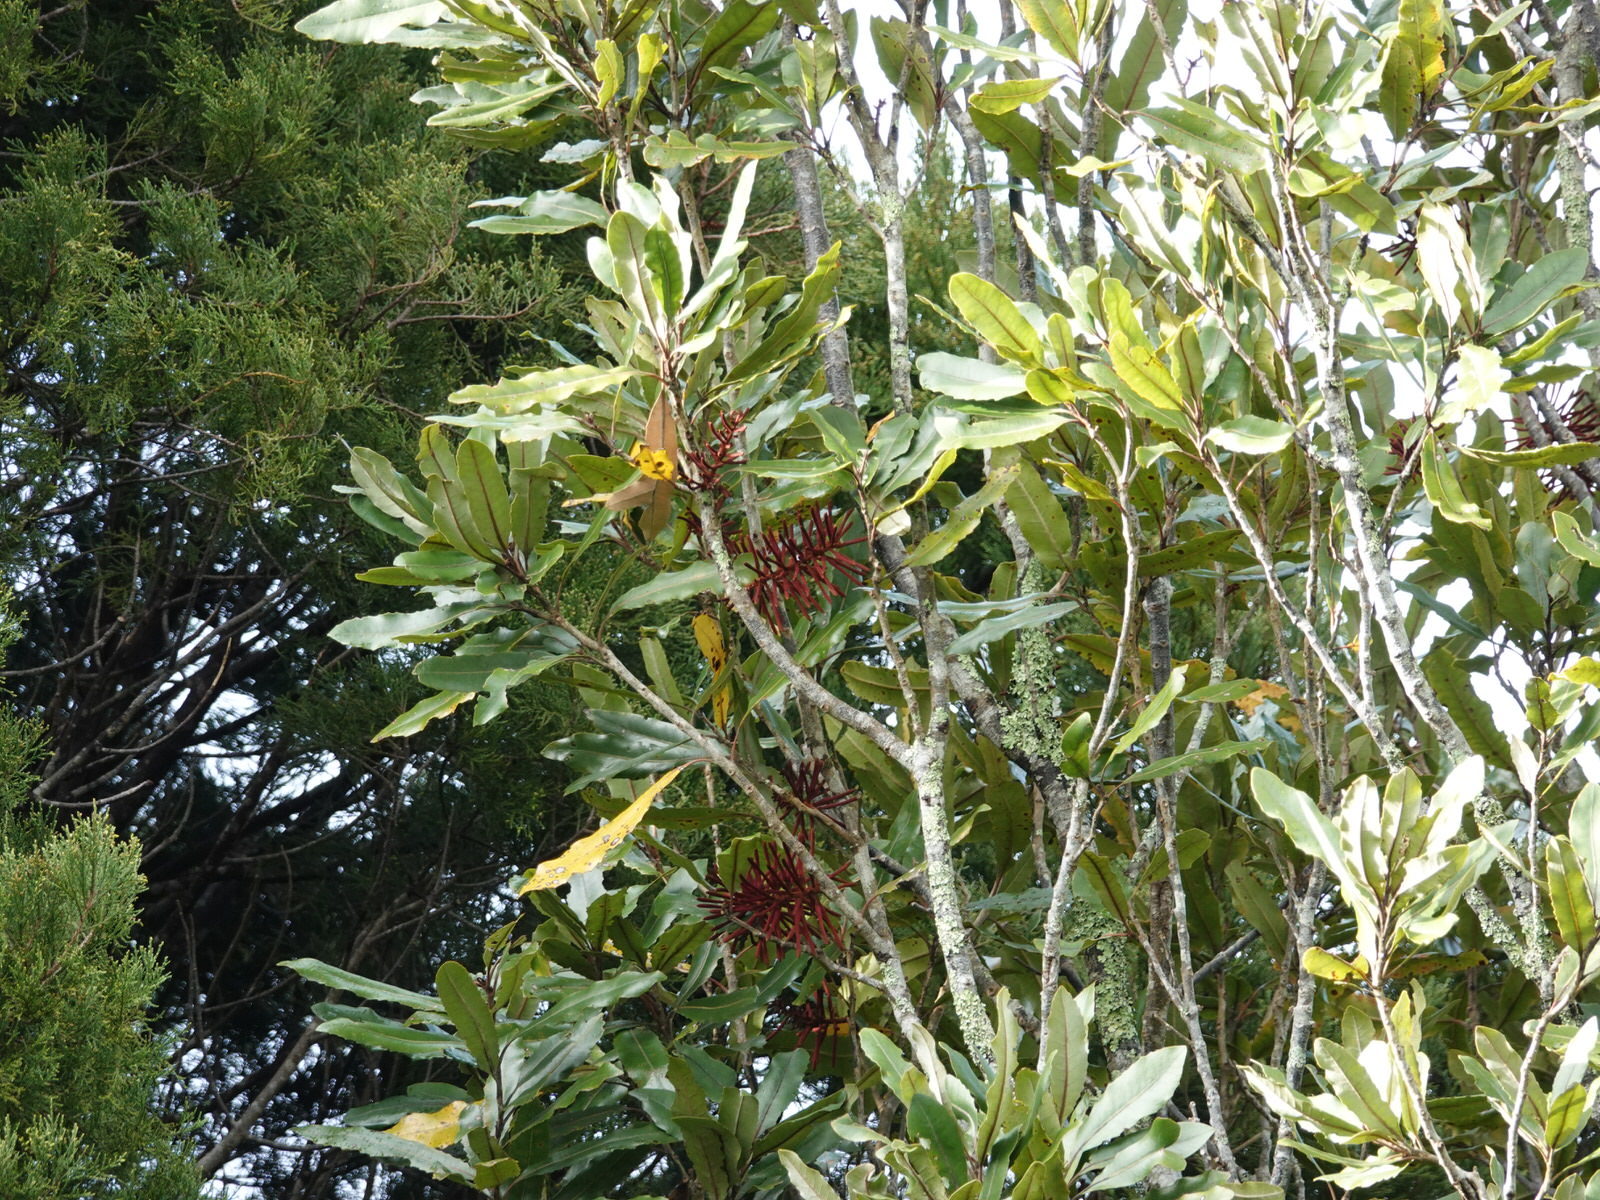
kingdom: Plantae
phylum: Tracheophyta
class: Magnoliopsida
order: Proteales
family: Proteaceae
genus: Knightia
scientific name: Knightia excelsa
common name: New zealand-honeysuckle
